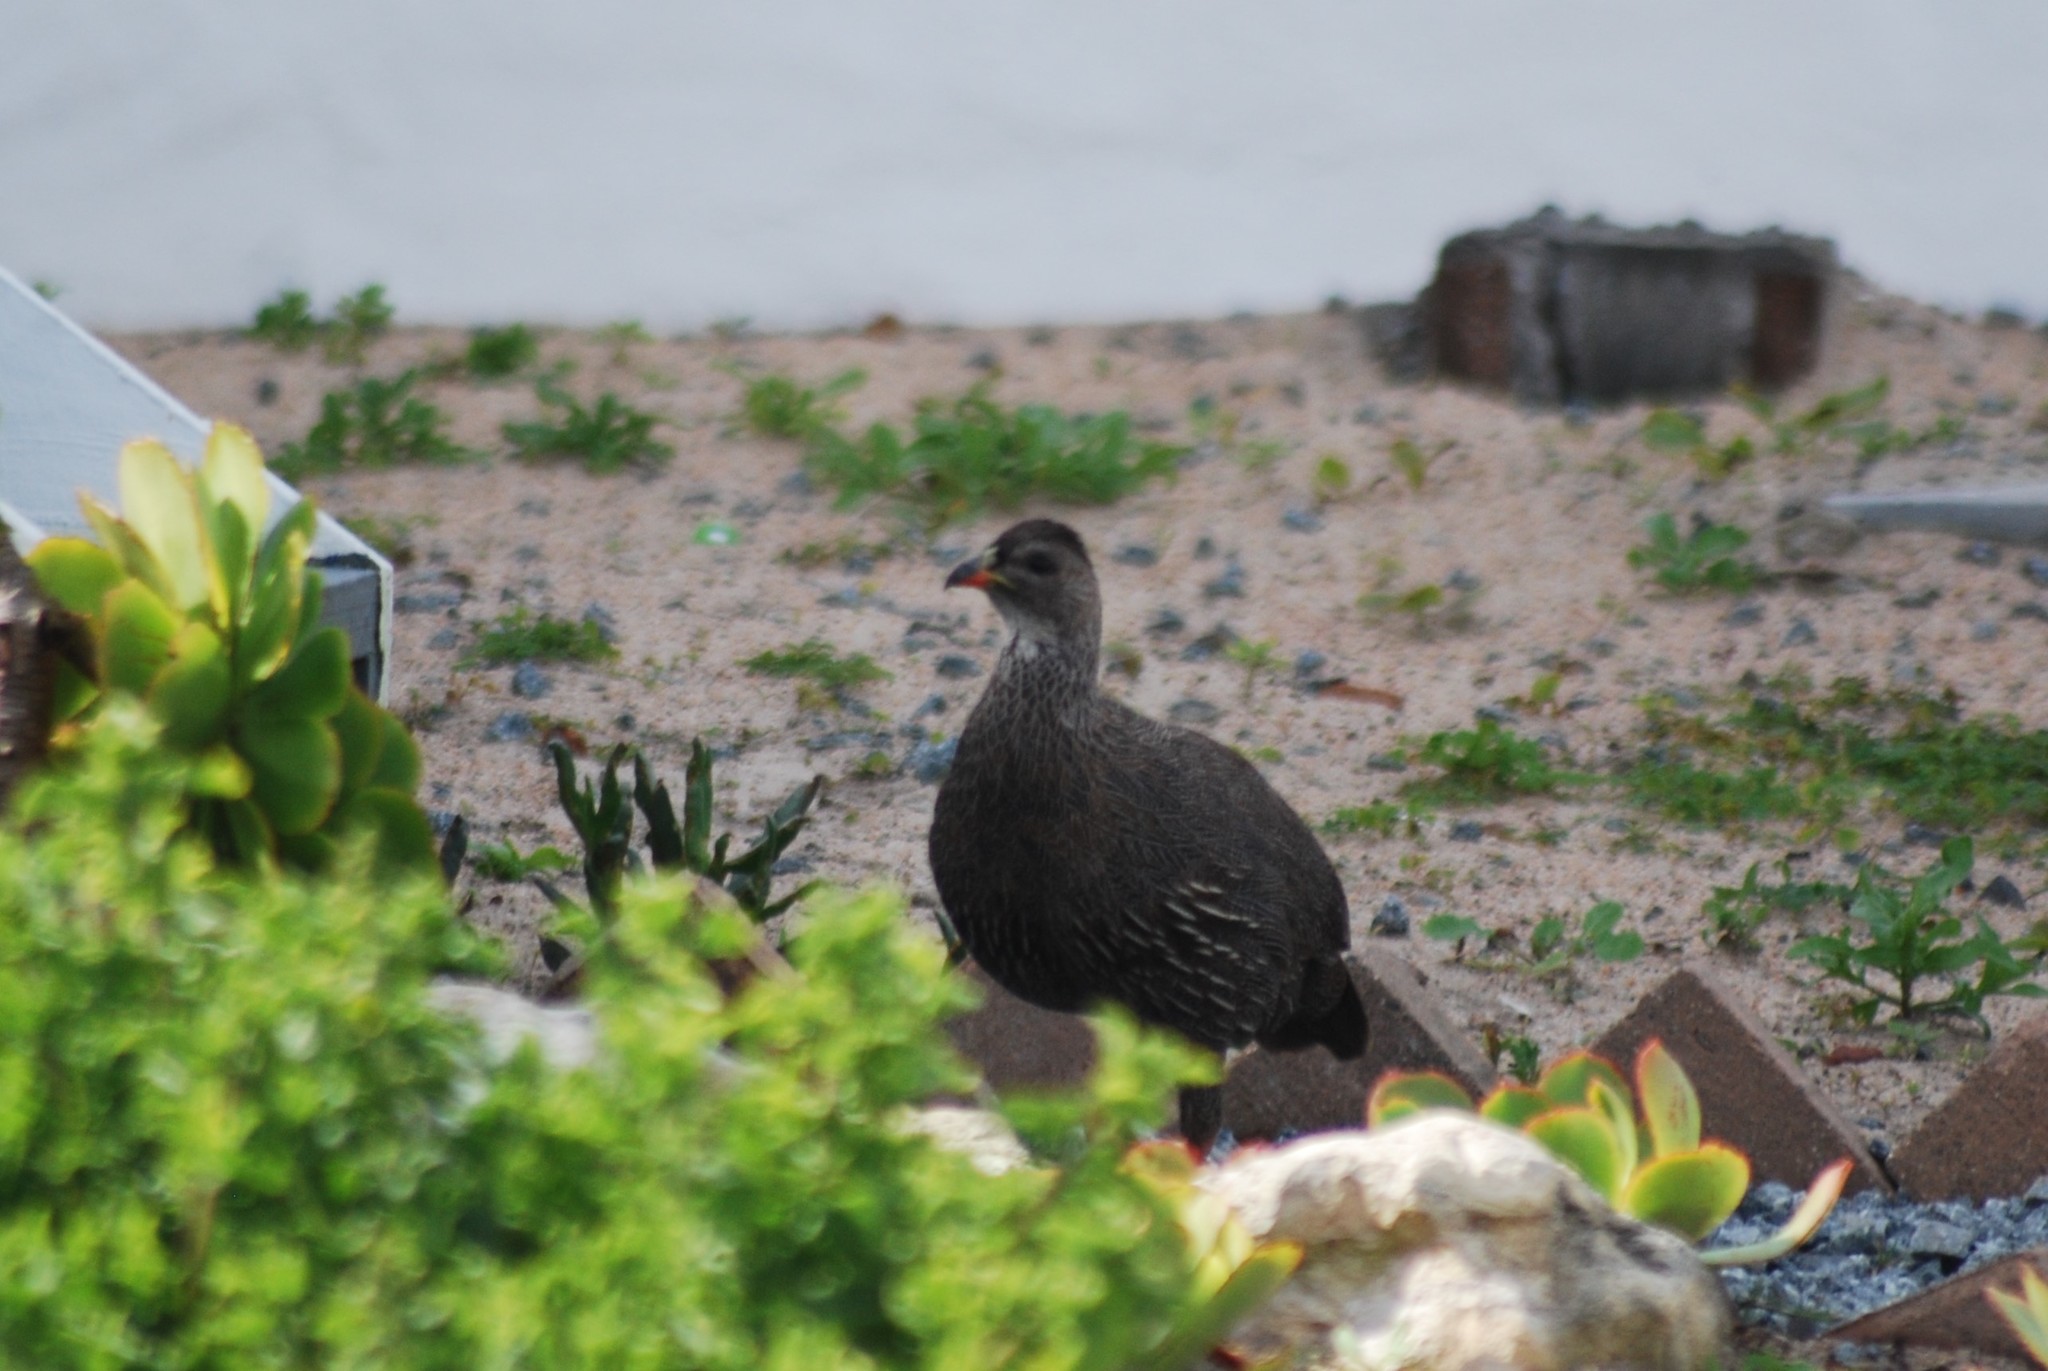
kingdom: Animalia
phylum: Chordata
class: Aves
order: Galliformes
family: Phasianidae
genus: Pternistis
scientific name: Pternistis capensis
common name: Cape spurfowl
